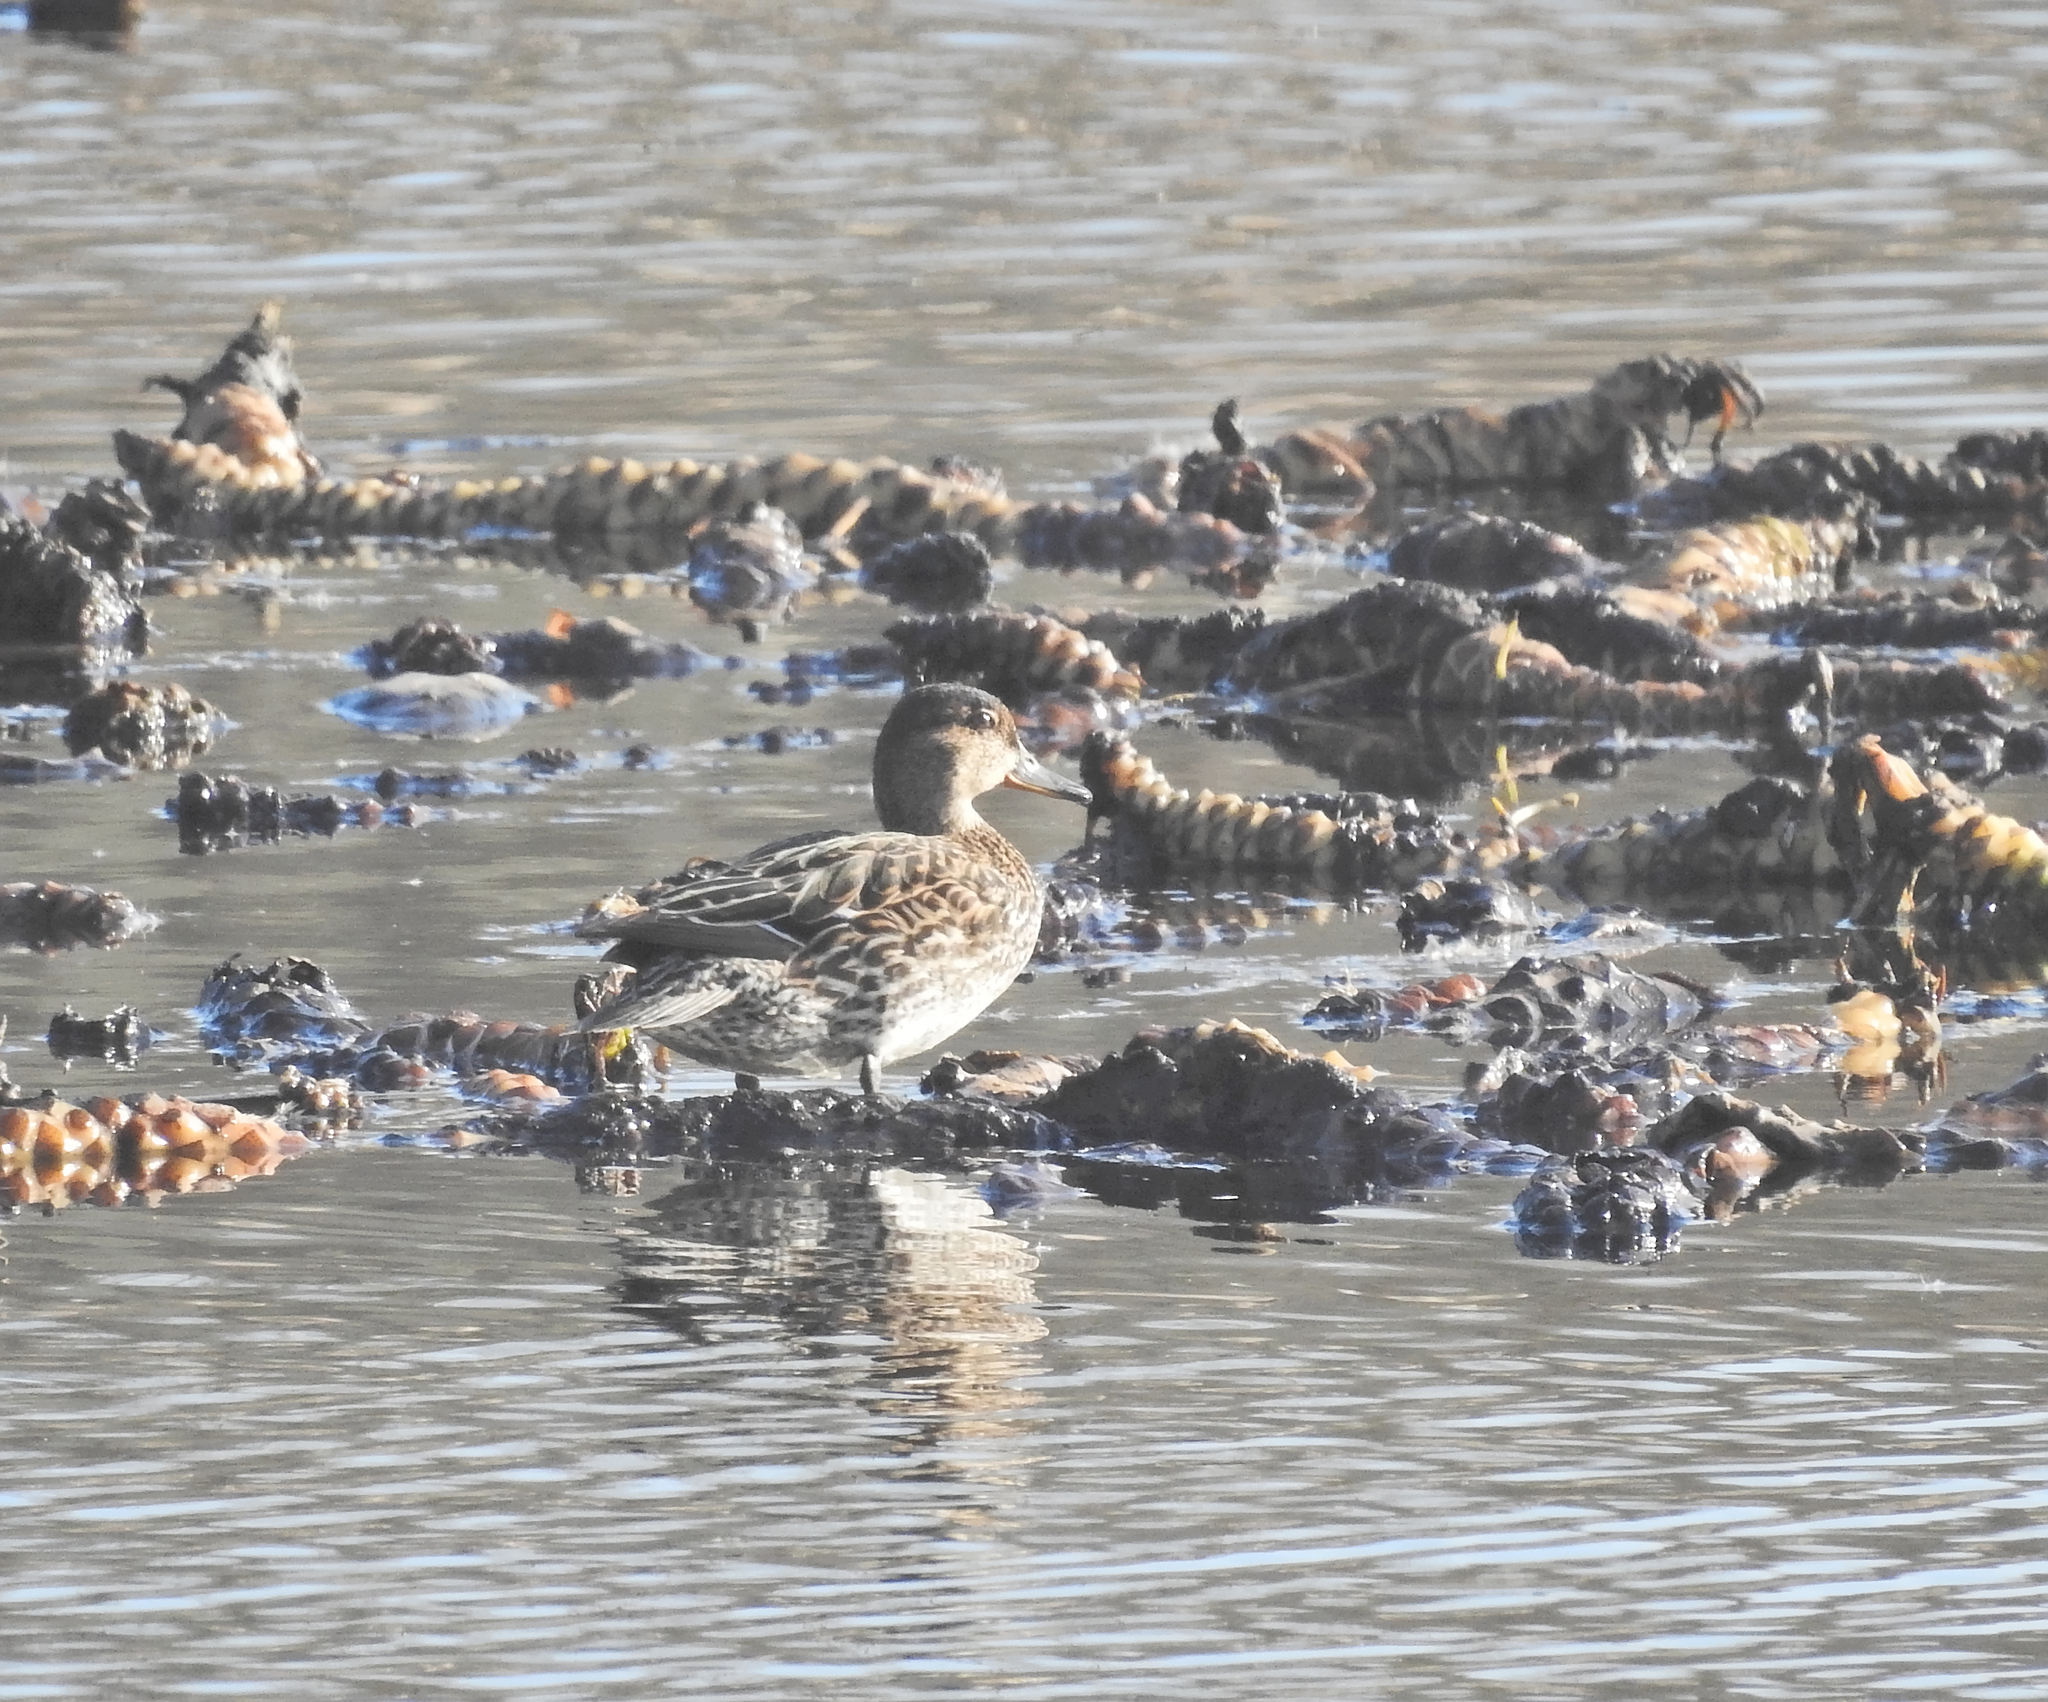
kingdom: Animalia
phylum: Chordata
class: Aves
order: Anseriformes
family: Anatidae
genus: Anas
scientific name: Anas crecca
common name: Eurasian teal
